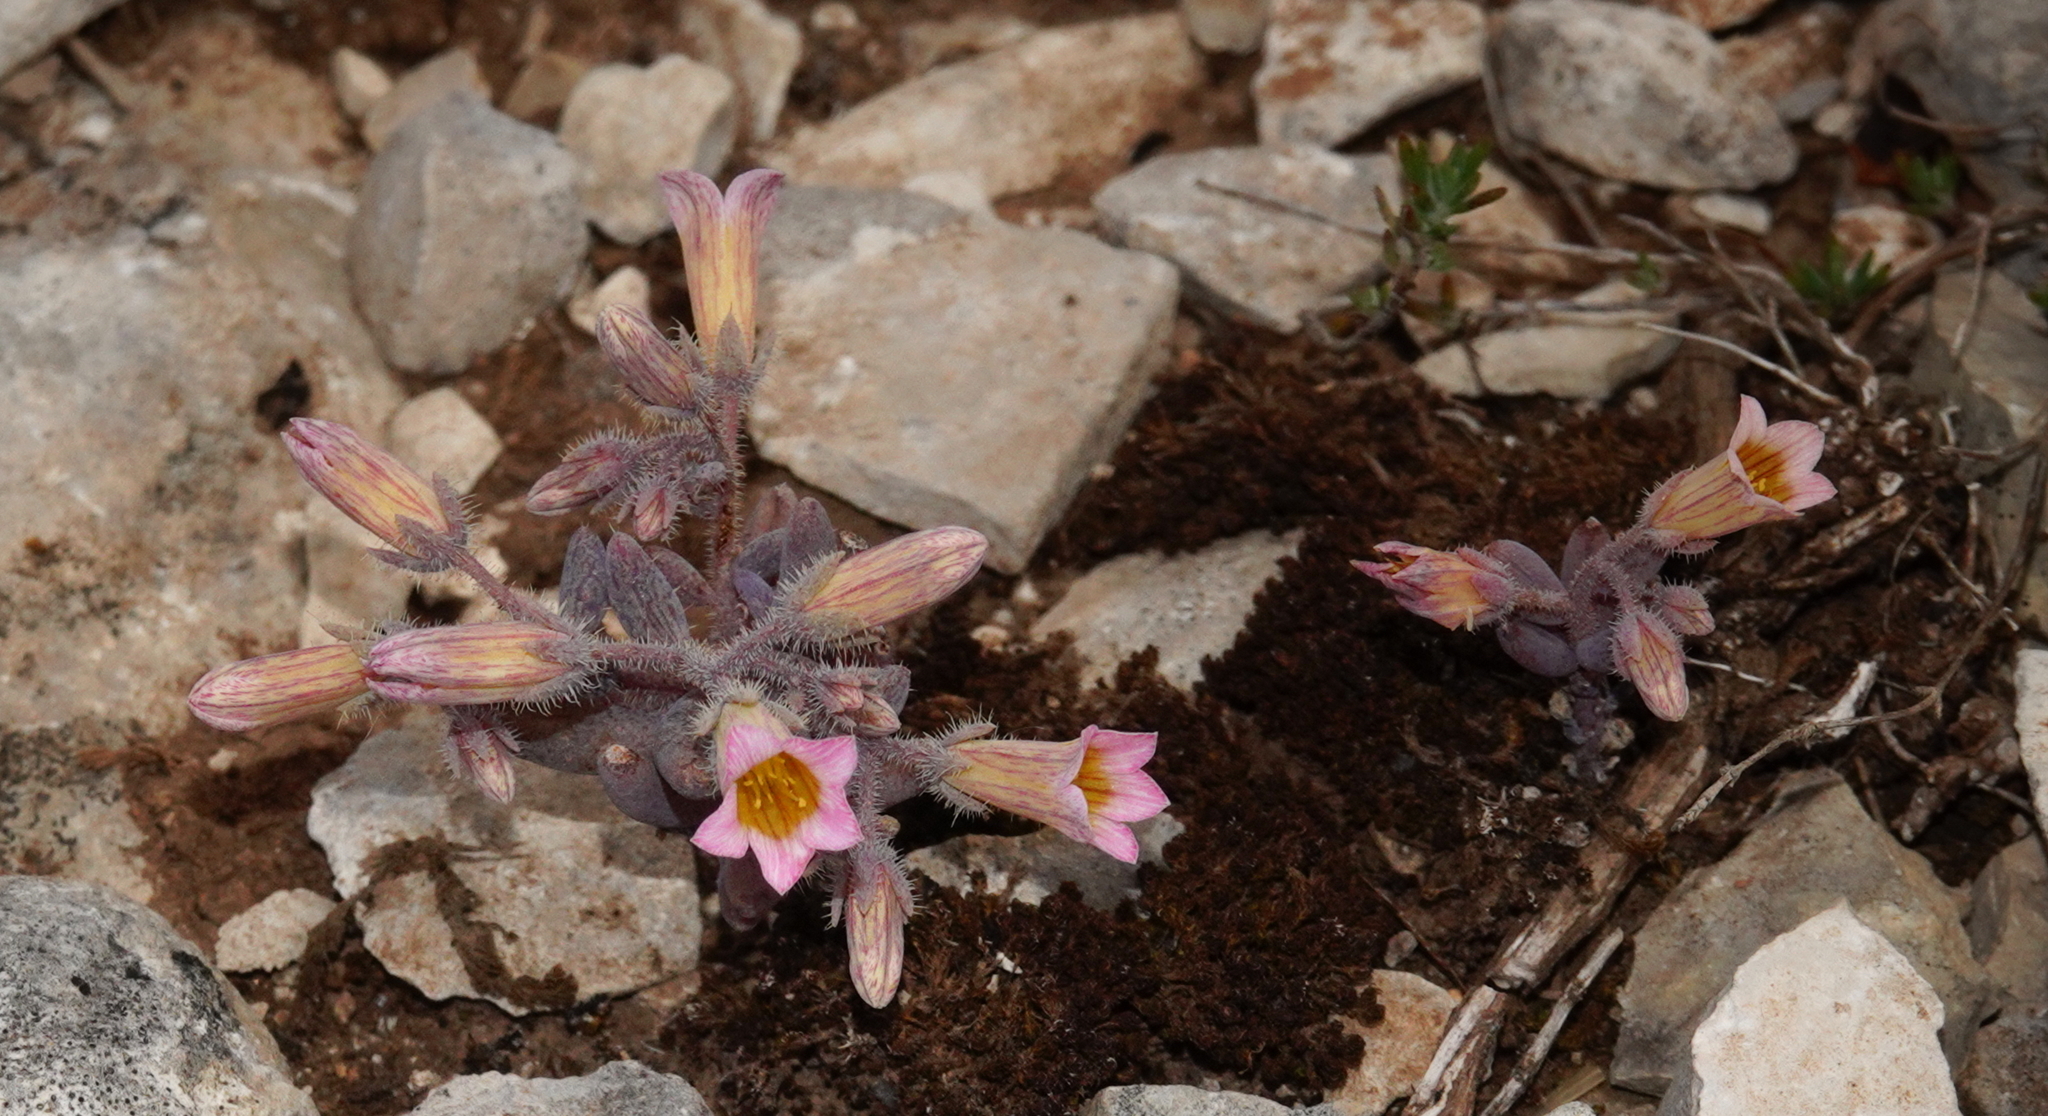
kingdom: Plantae
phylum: Tracheophyta
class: Magnoliopsida
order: Saxifragales
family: Crassulaceae
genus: Sedum
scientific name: Sedum mucizonia
